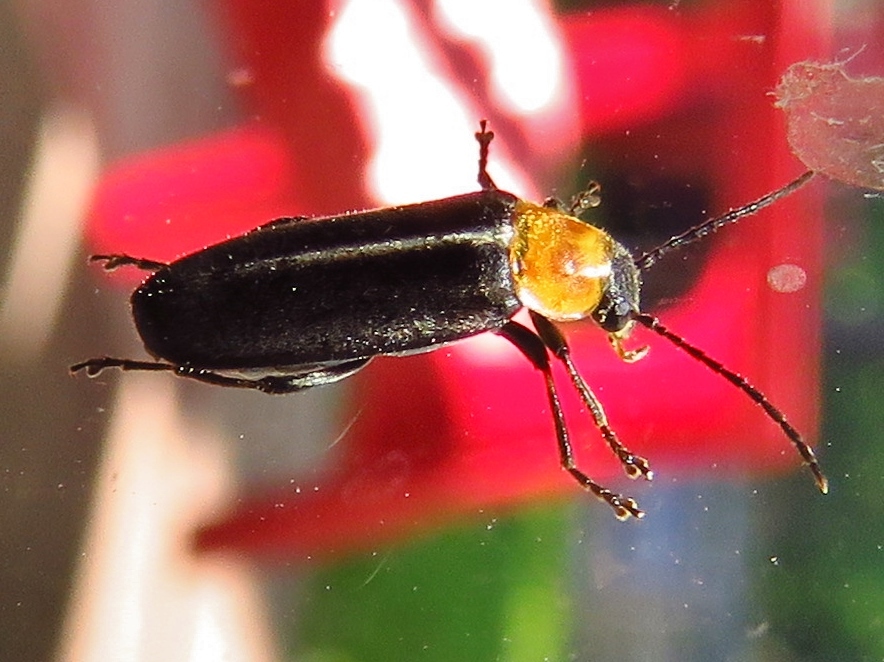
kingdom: Animalia
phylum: Arthropoda
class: Insecta
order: Coleoptera
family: Melandryidae
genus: Osphya
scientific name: Osphya varians
